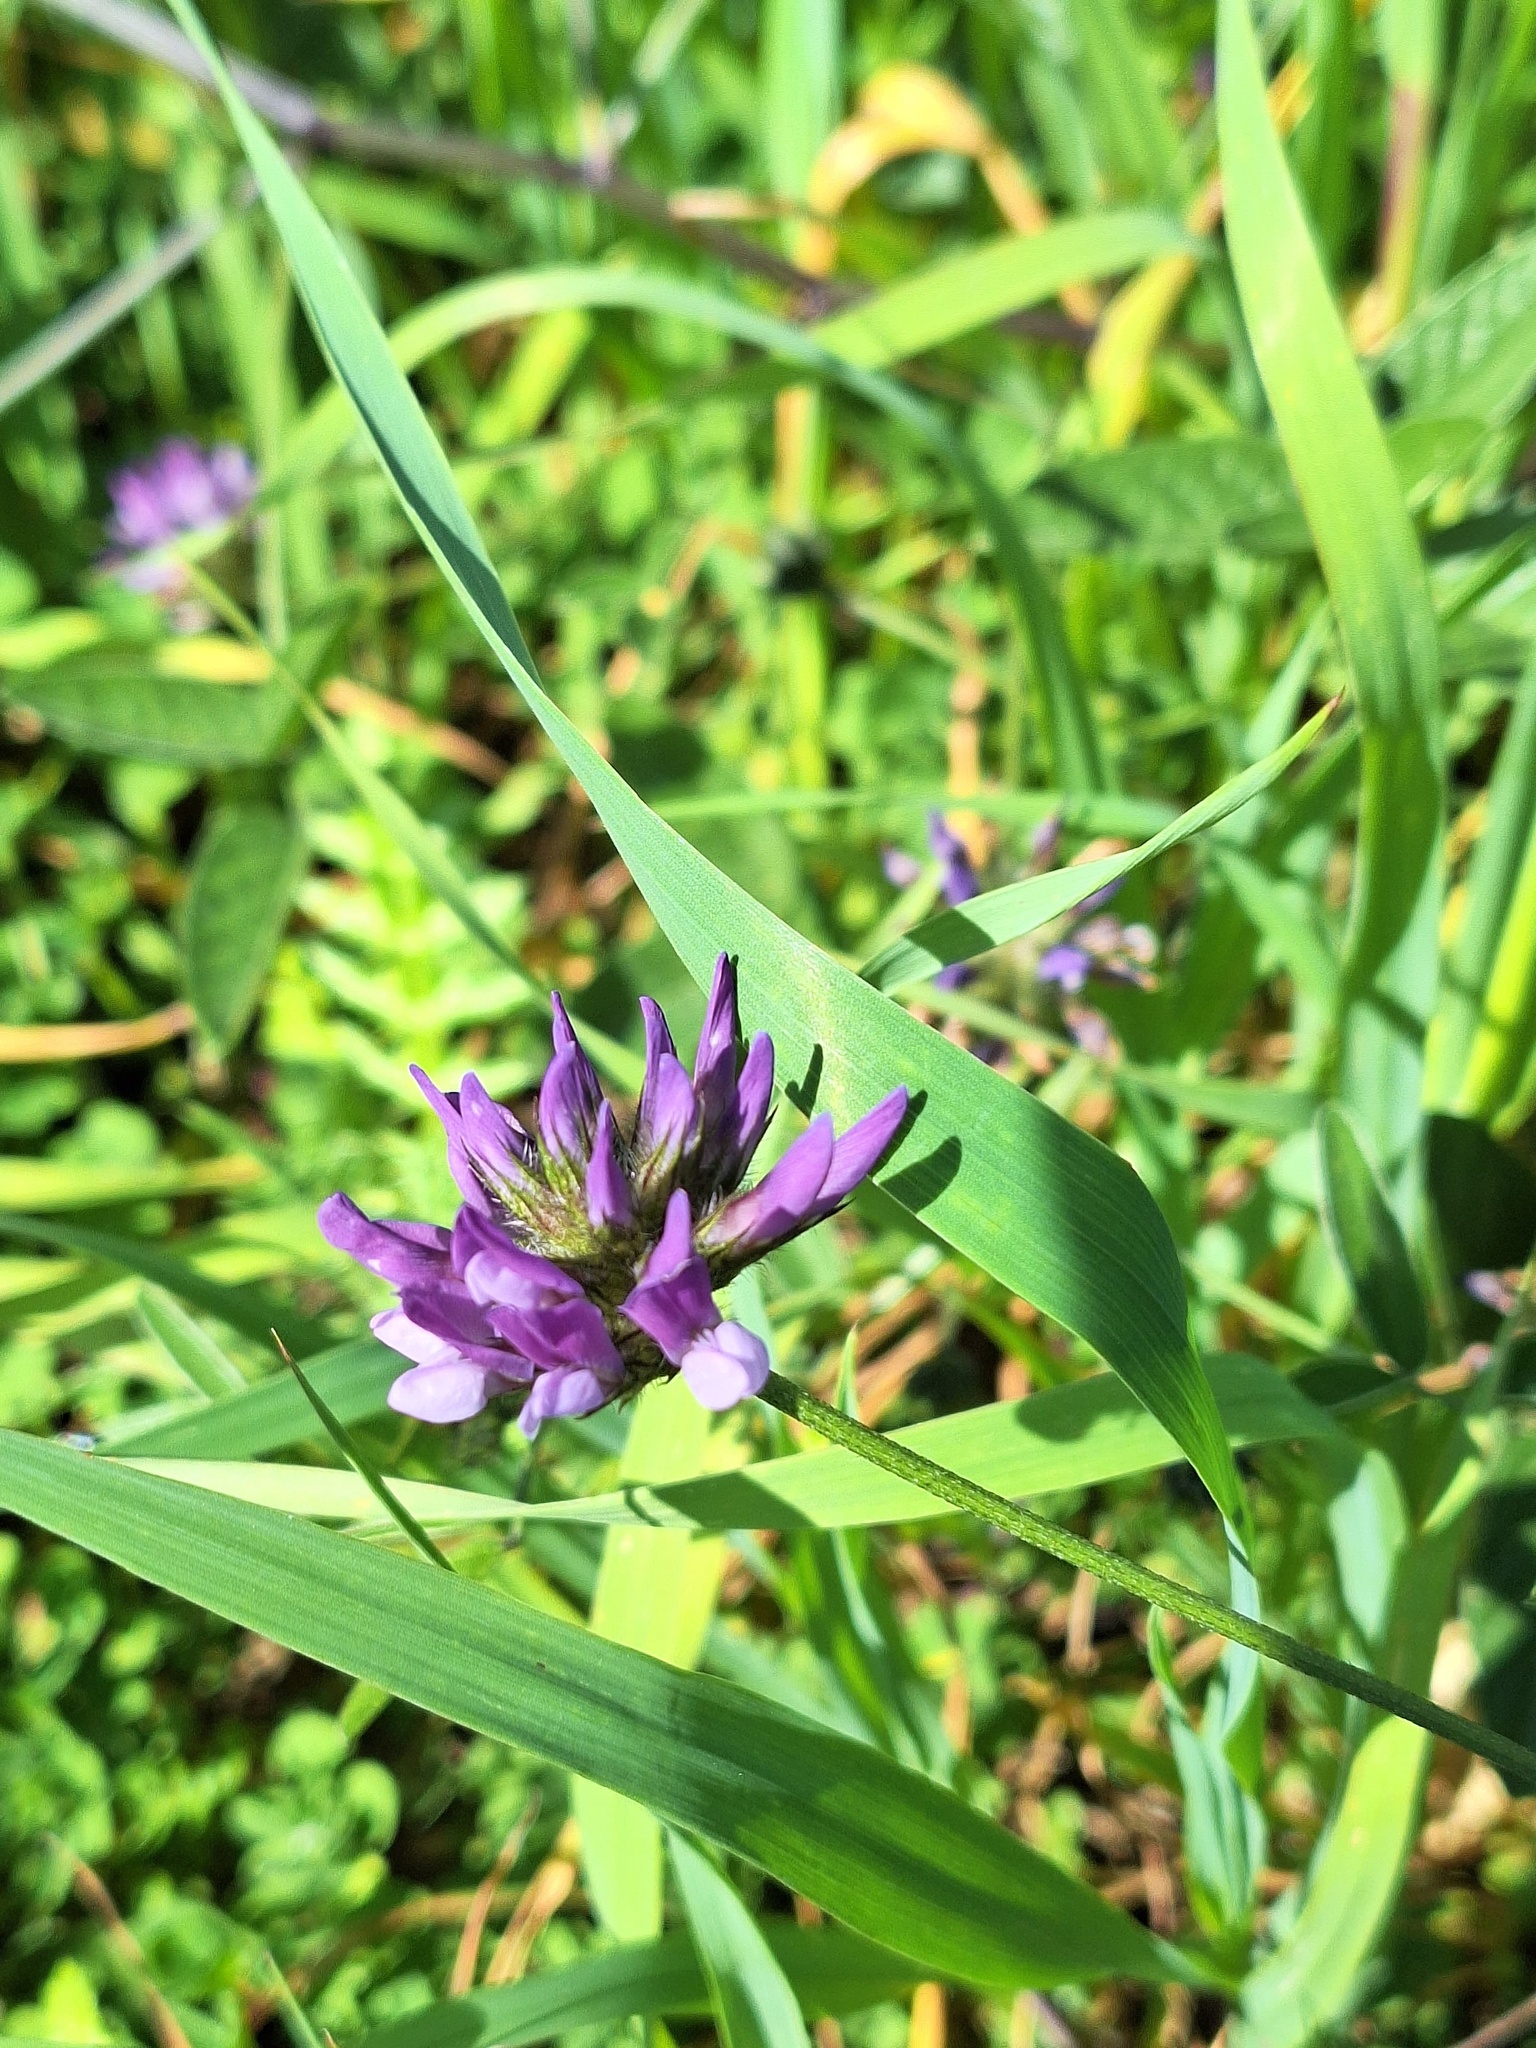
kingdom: Plantae
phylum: Tracheophyta
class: Magnoliopsida
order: Fabales
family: Fabaceae
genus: Bituminaria
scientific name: Bituminaria bituminosa
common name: Arabian pea
